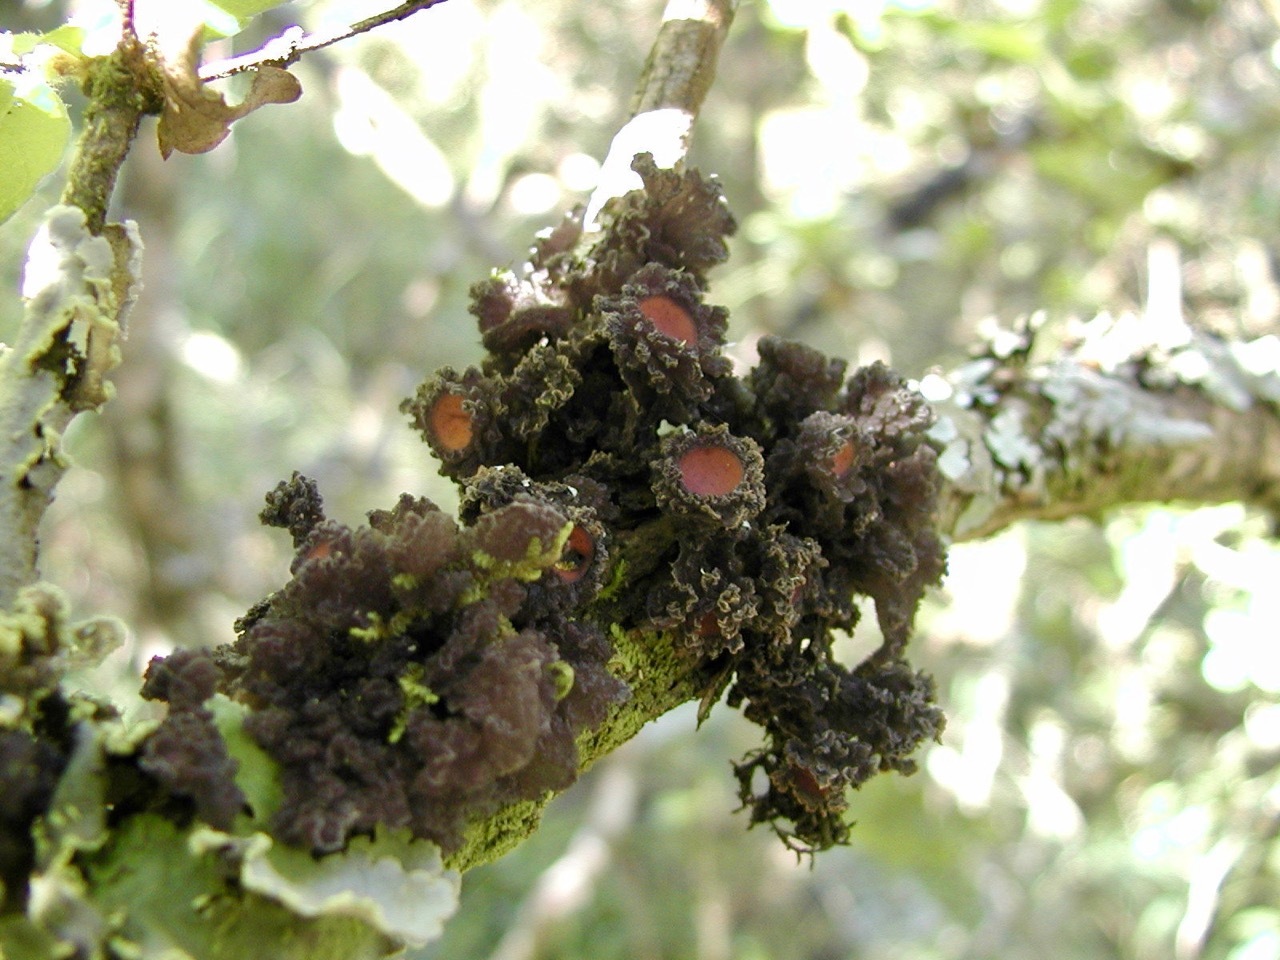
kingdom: Fungi
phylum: Ascomycota
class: Lecanoromycetes
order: Peltigerales
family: Collemataceae
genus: Leptogium
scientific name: Leptogium phyllocarpum
